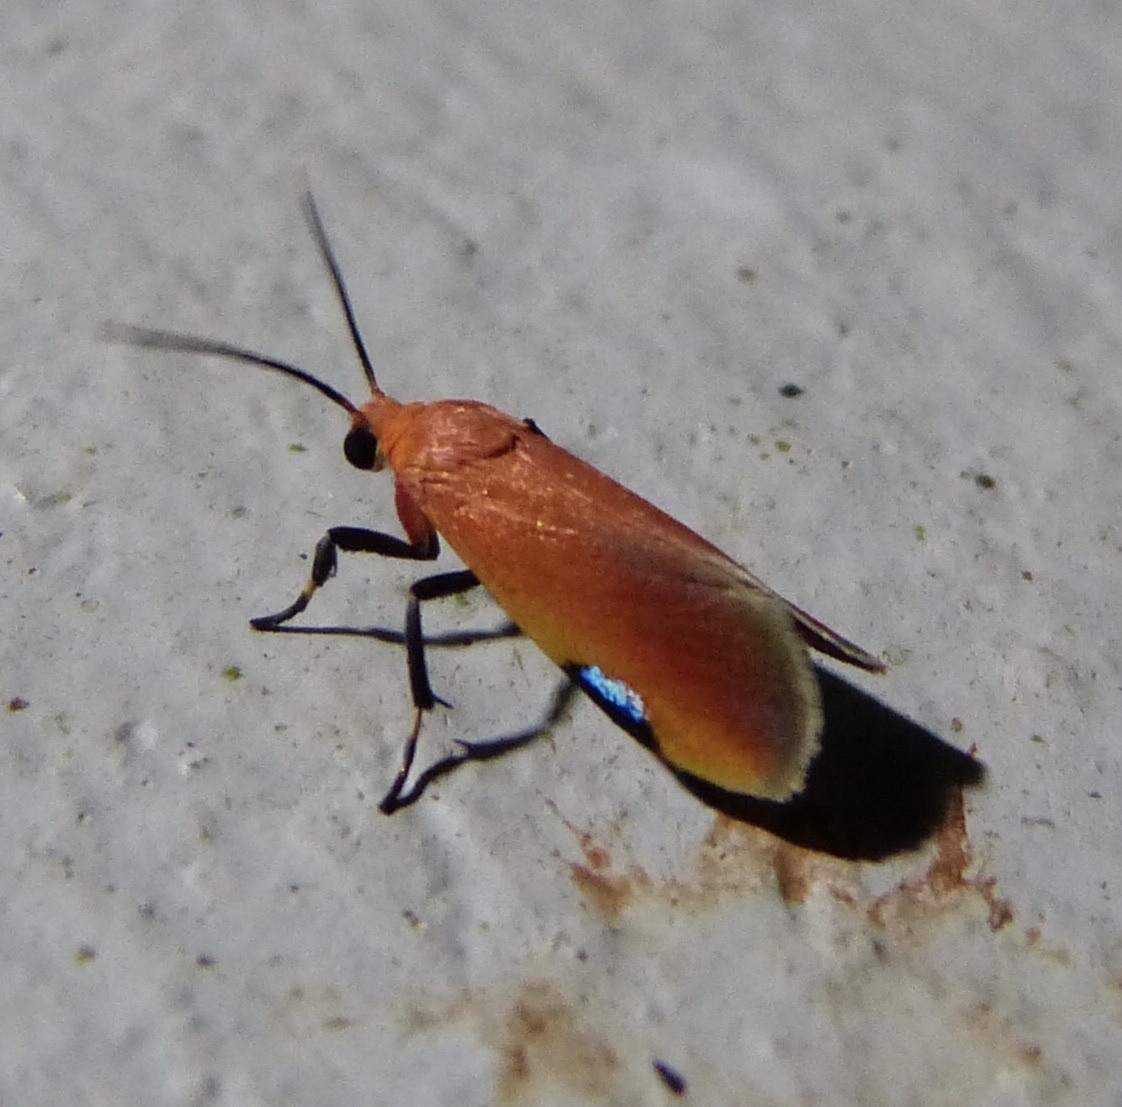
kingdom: Animalia
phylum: Arthropoda
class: Insecta
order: Lepidoptera
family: Erebidae
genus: Talara
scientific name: Talara coccinea
